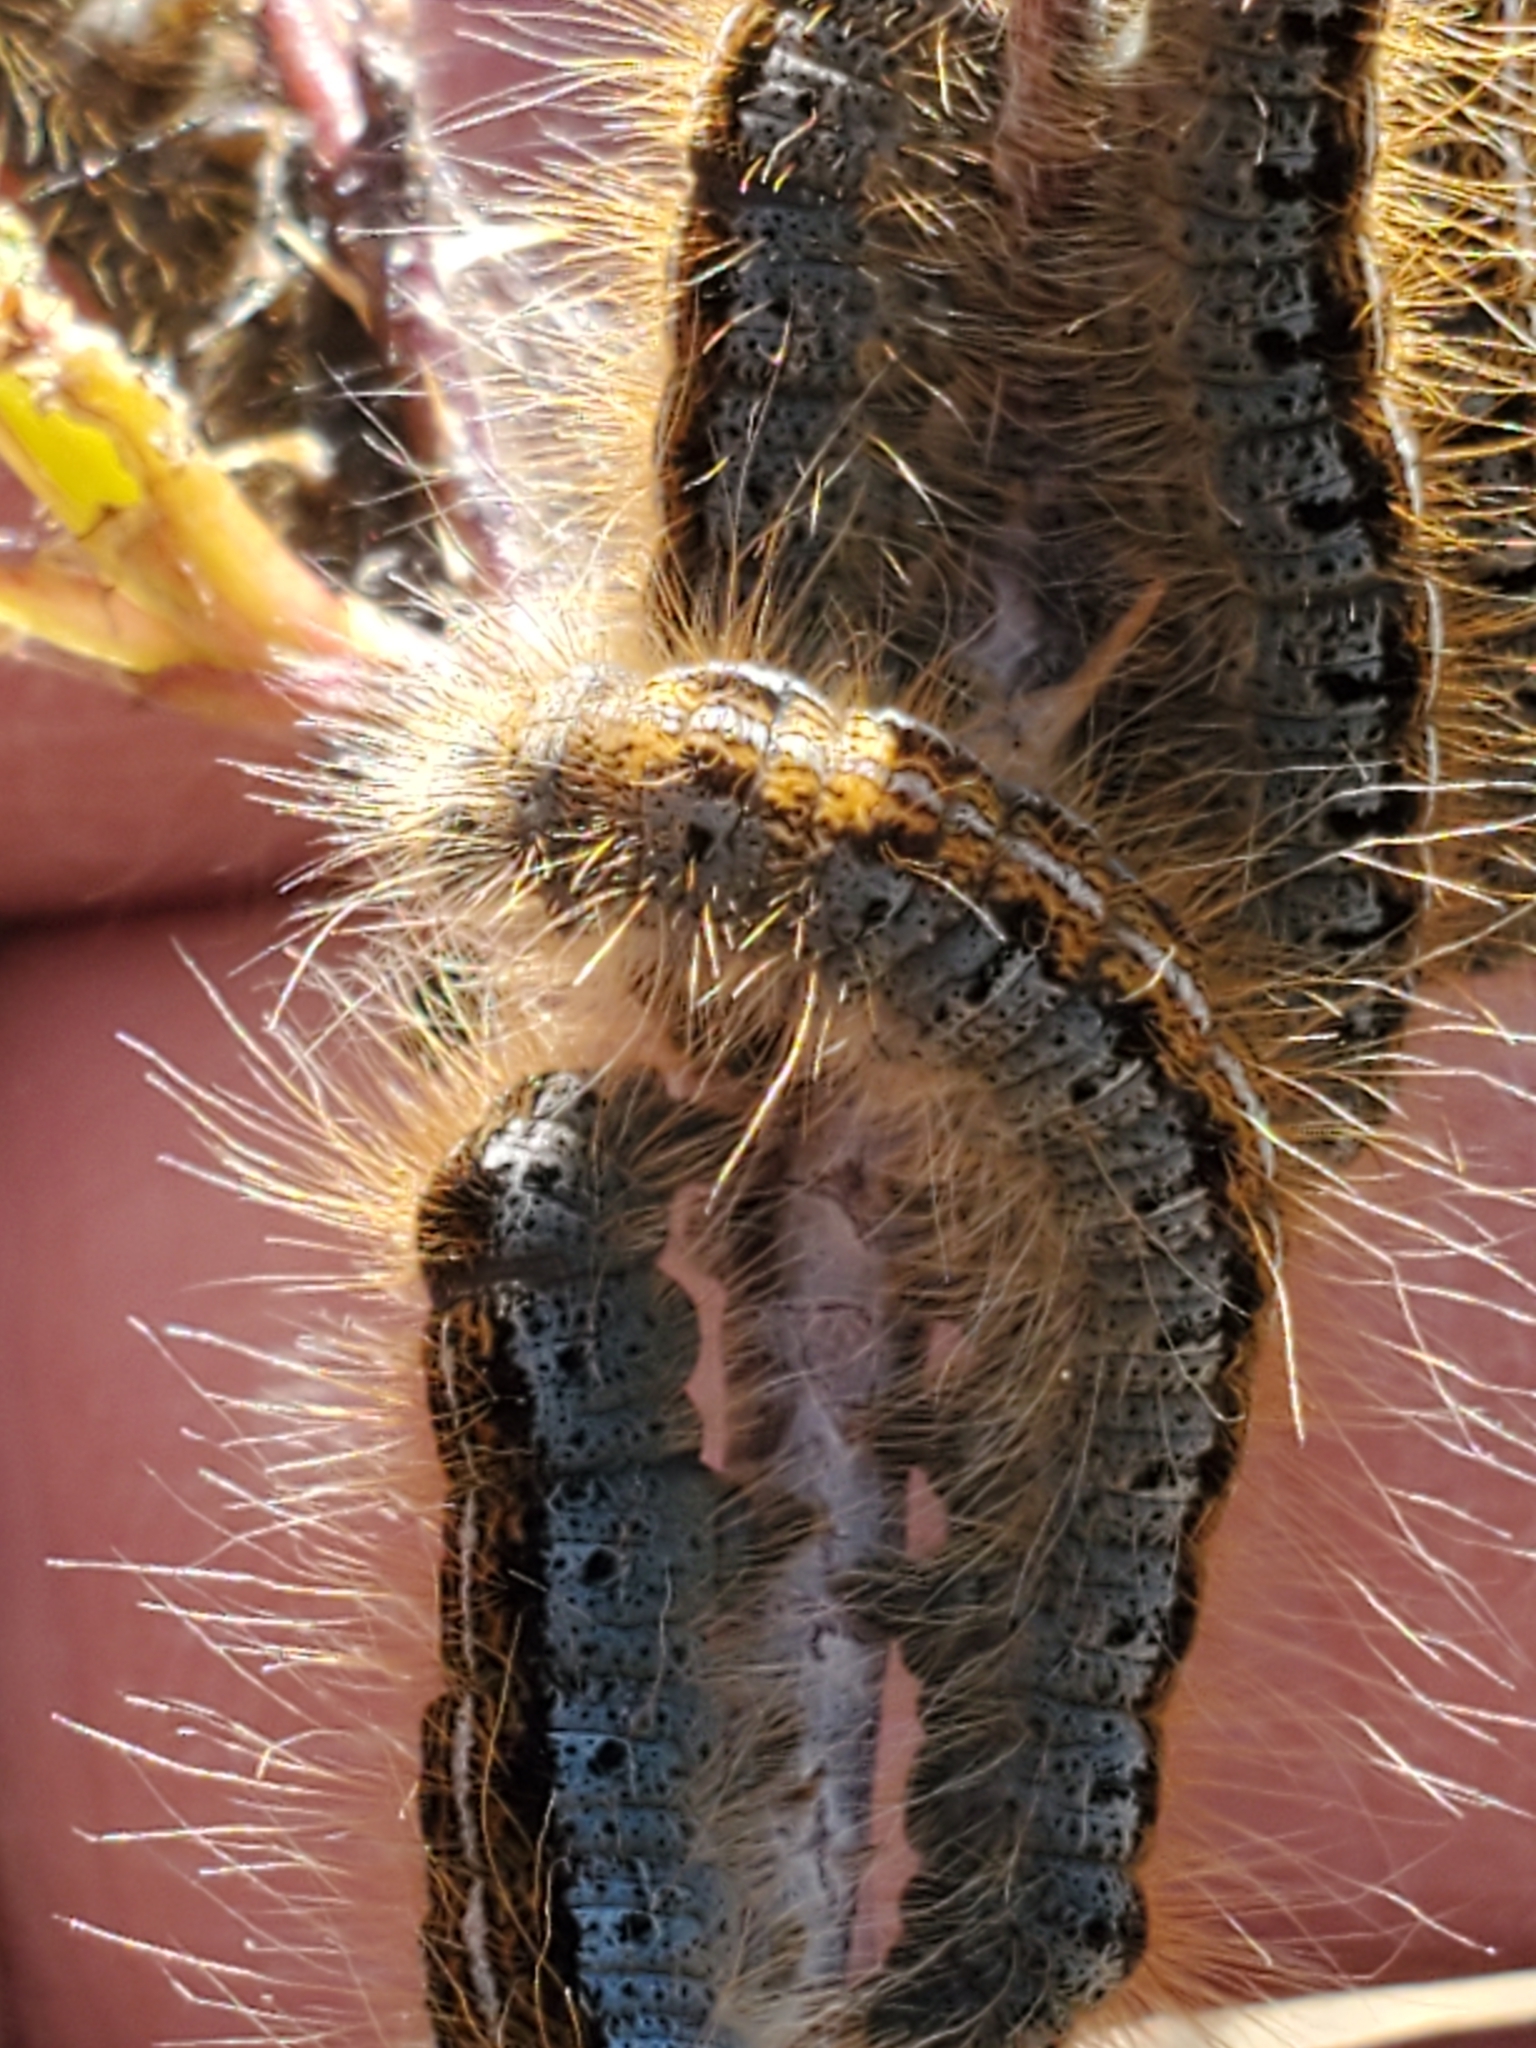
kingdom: Animalia
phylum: Arthropoda
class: Insecta
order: Lepidoptera
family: Lasiocampidae
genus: Malacosoma
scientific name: Malacosoma californica
